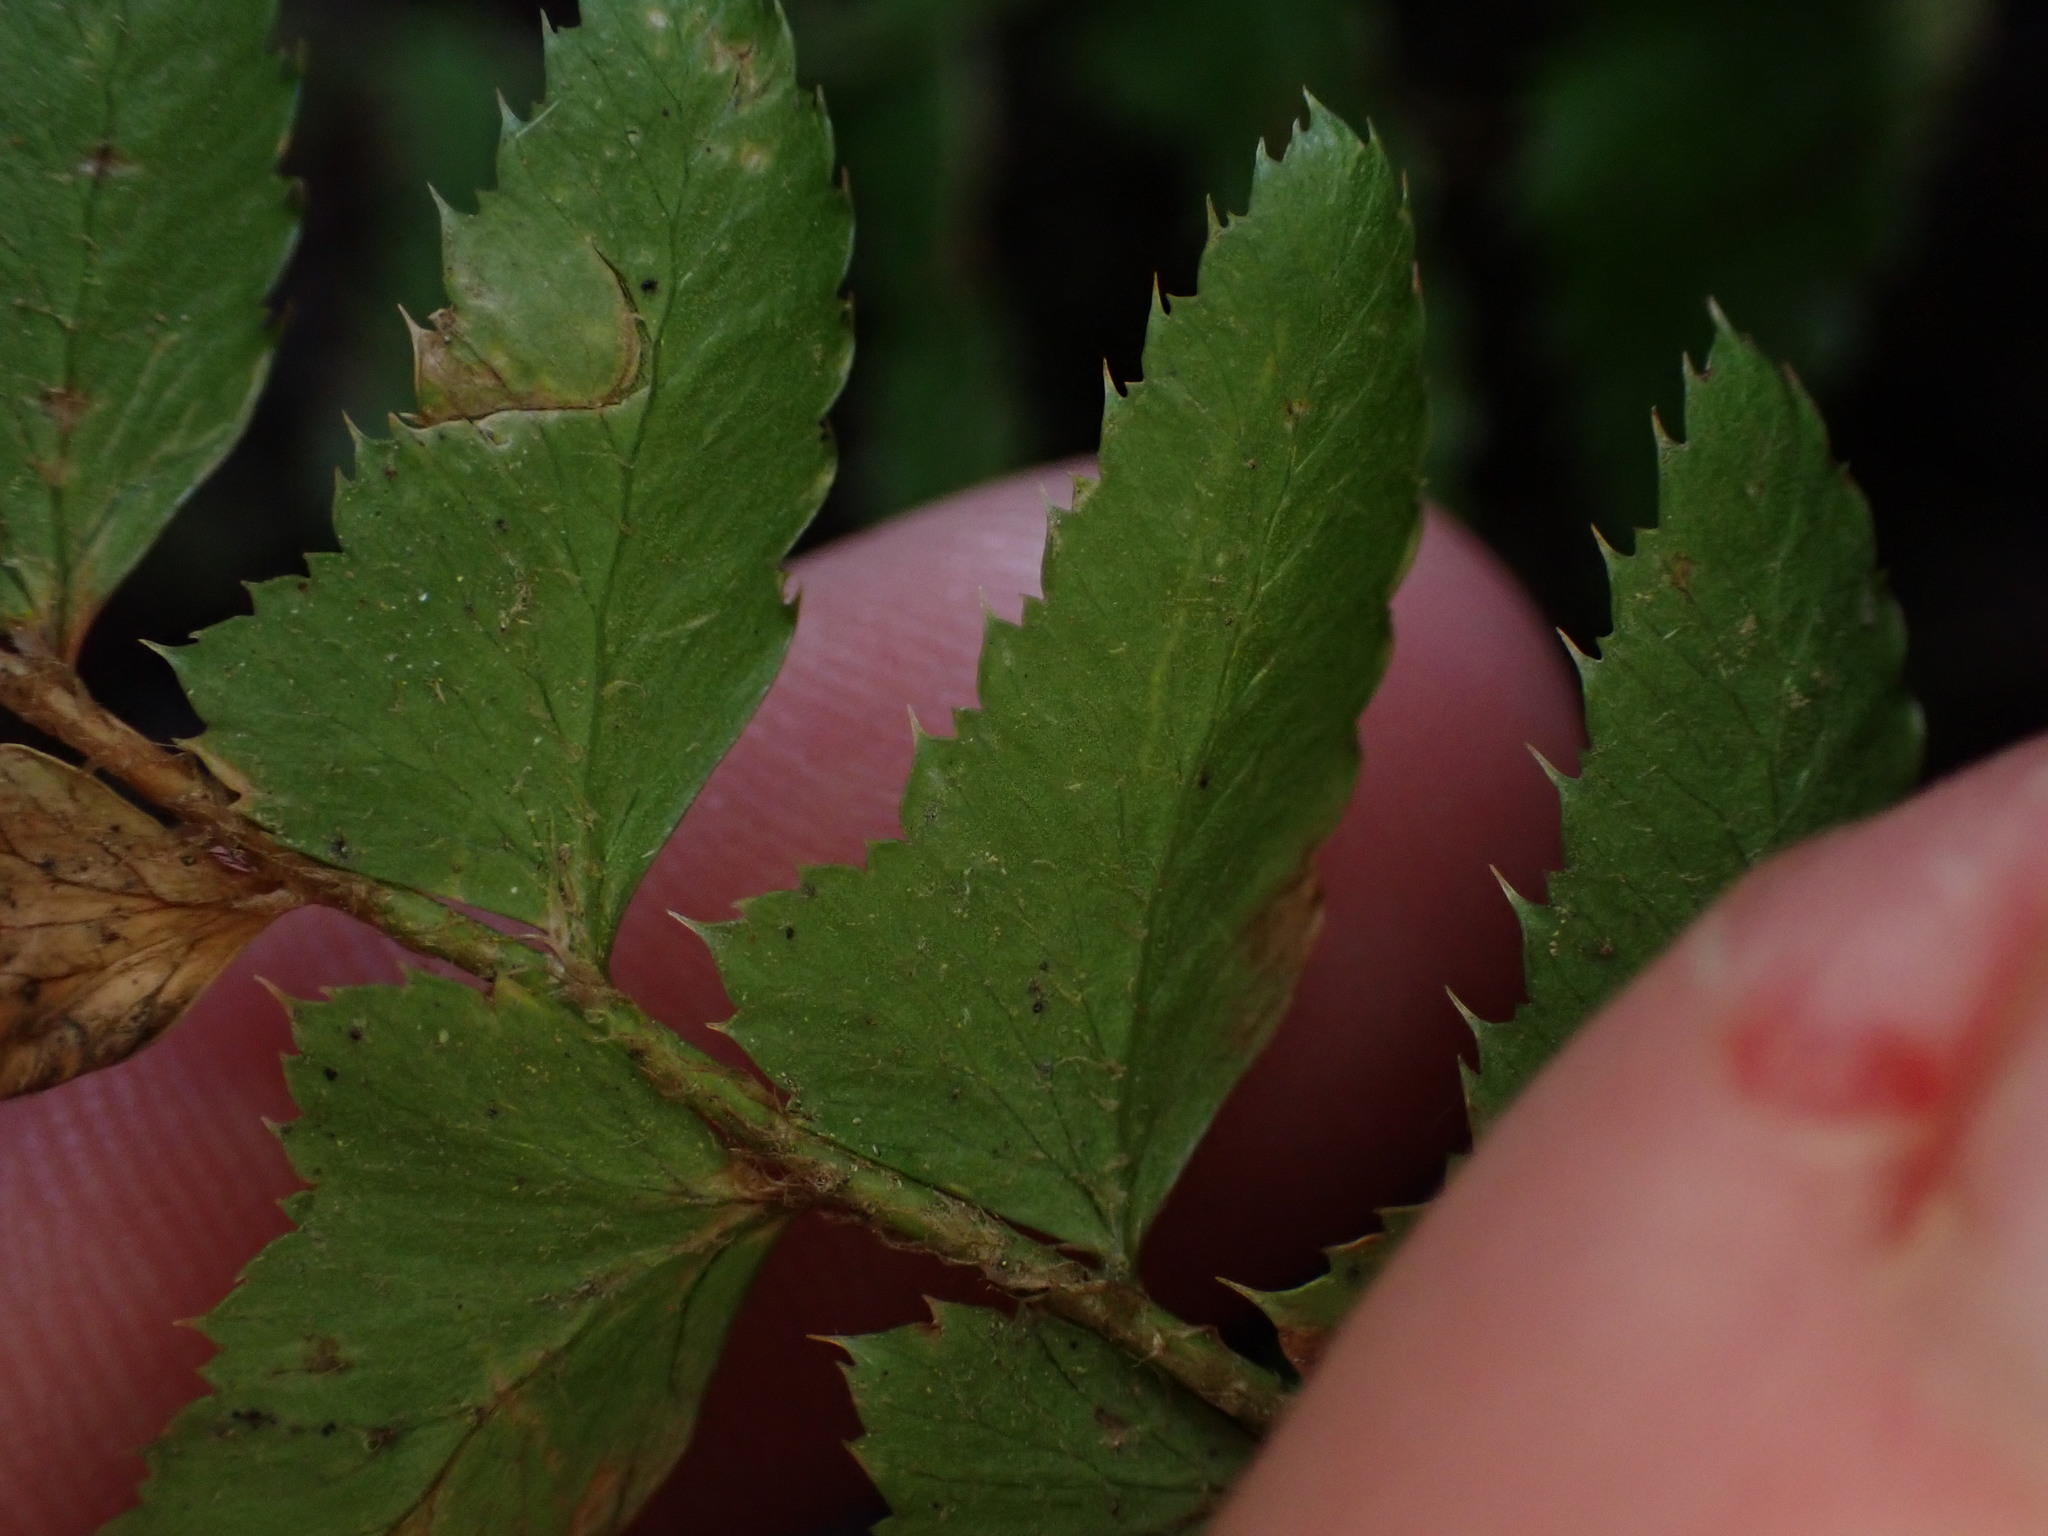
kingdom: Plantae
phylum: Tracheophyta
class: Polypodiopsida
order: Polypodiales
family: Dryopteridaceae
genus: Polystichum
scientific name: Polystichum munitum
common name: Western sword-fern
